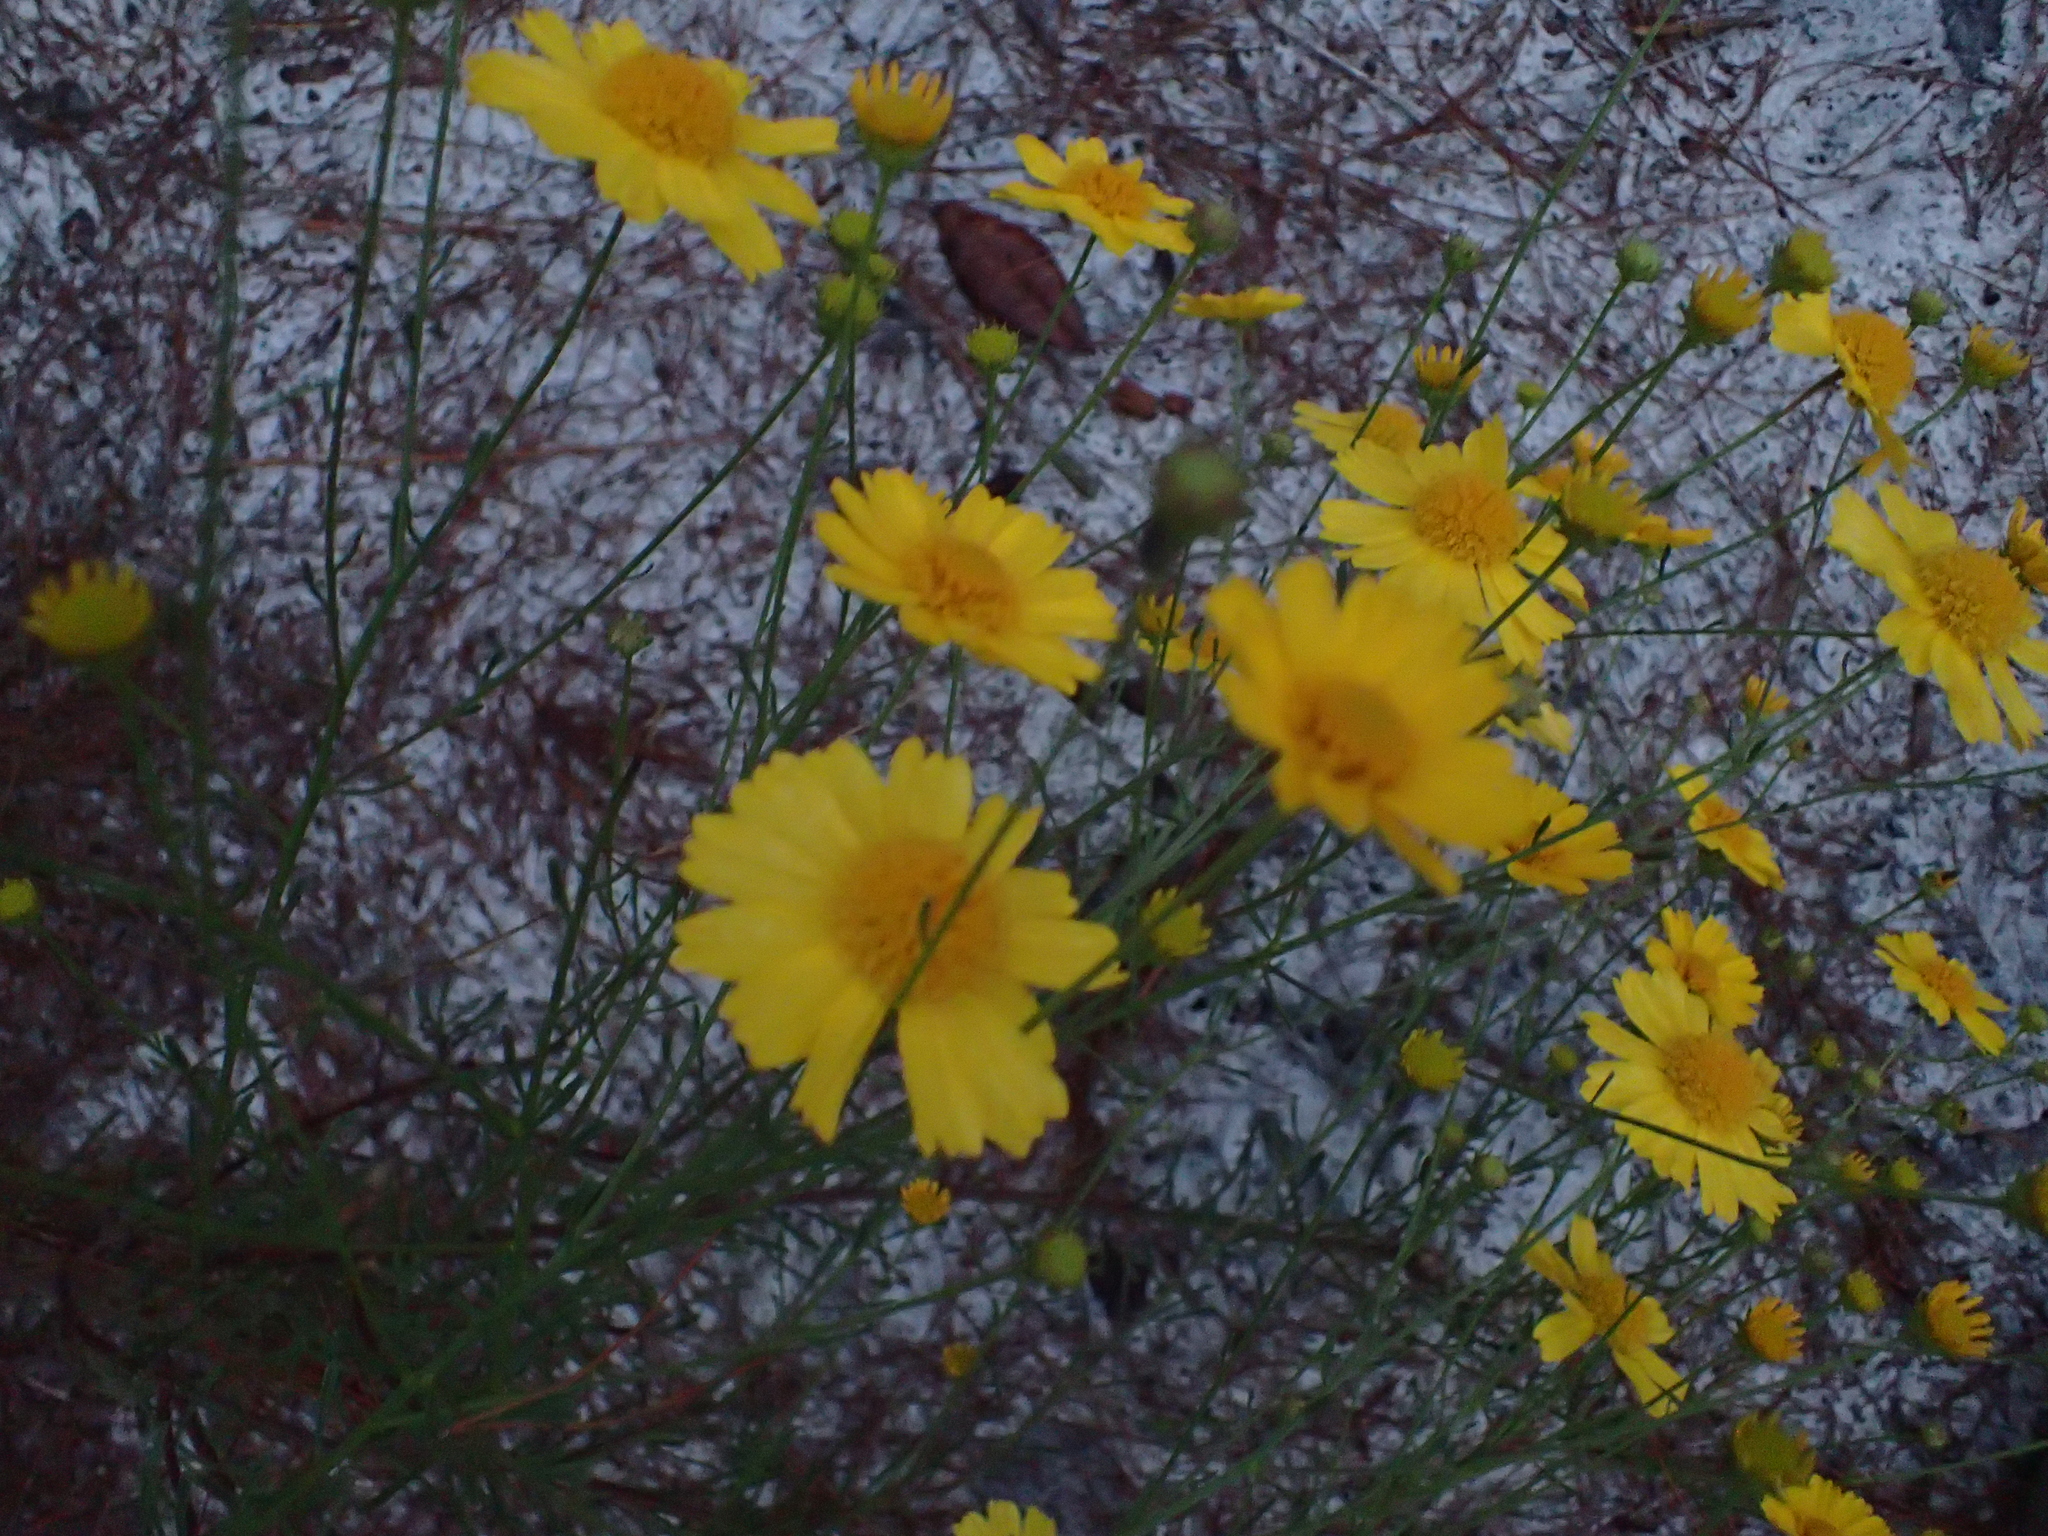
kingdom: Plantae
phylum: Tracheophyta
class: Magnoliopsida
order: Asterales
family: Asteraceae
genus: Balduina
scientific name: Balduina angustifolia
